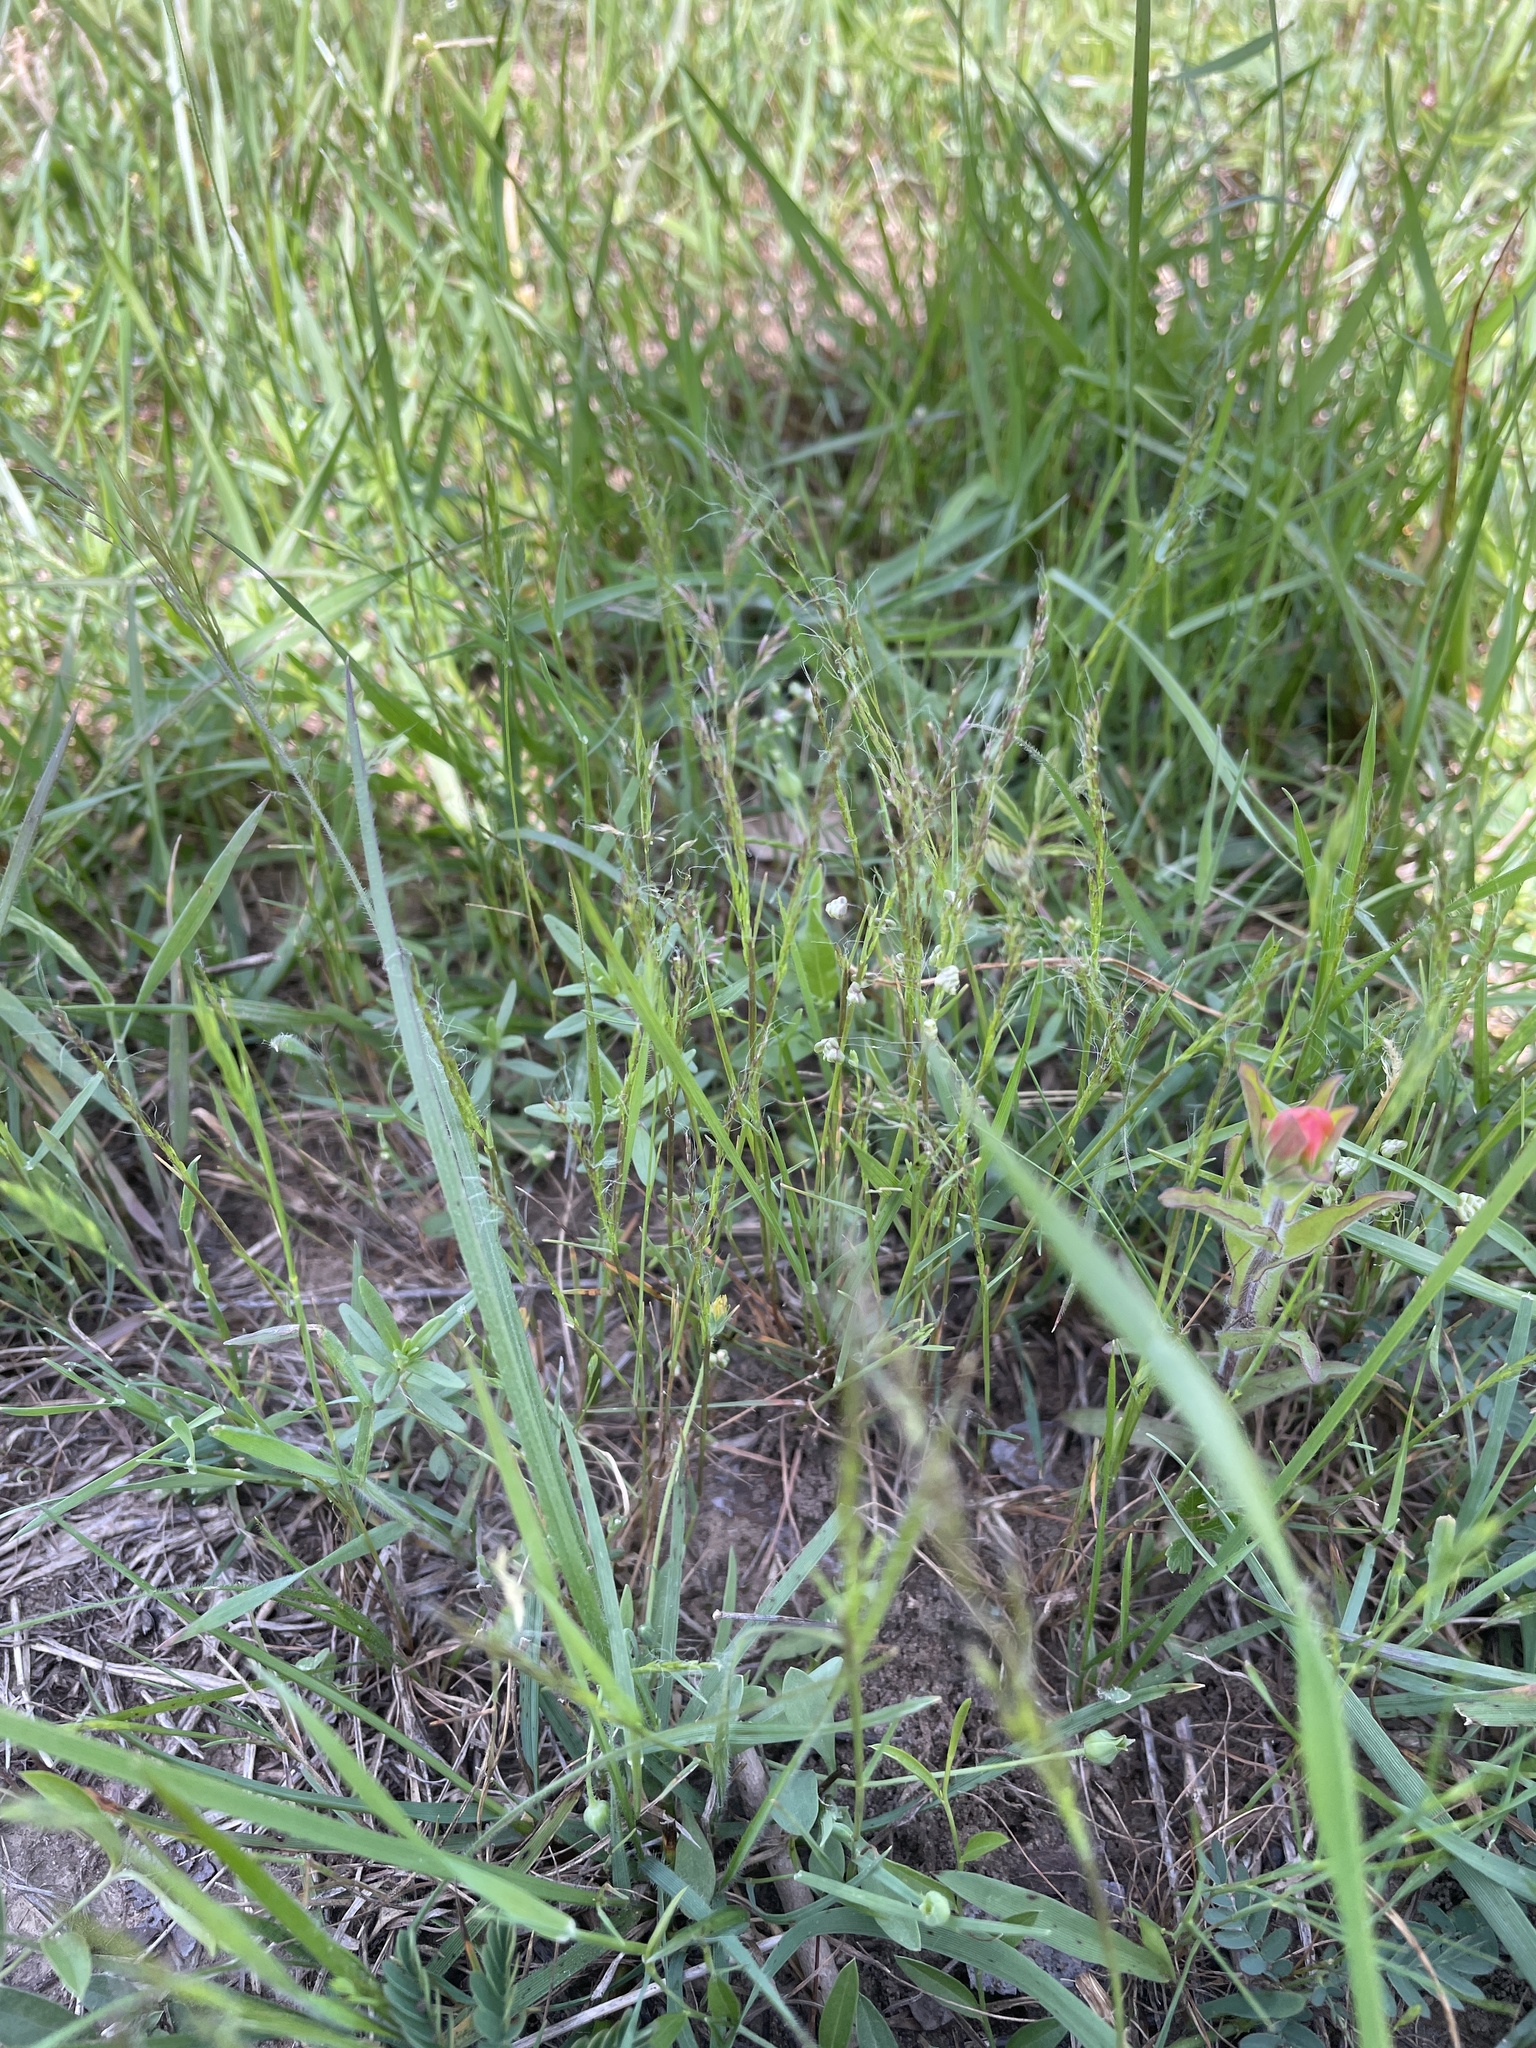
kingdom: Plantae
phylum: Tracheophyta
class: Liliopsida
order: Poales
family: Poaceae
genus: Agrostis
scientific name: Agrostis elliottiana
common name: Elliott's bent
